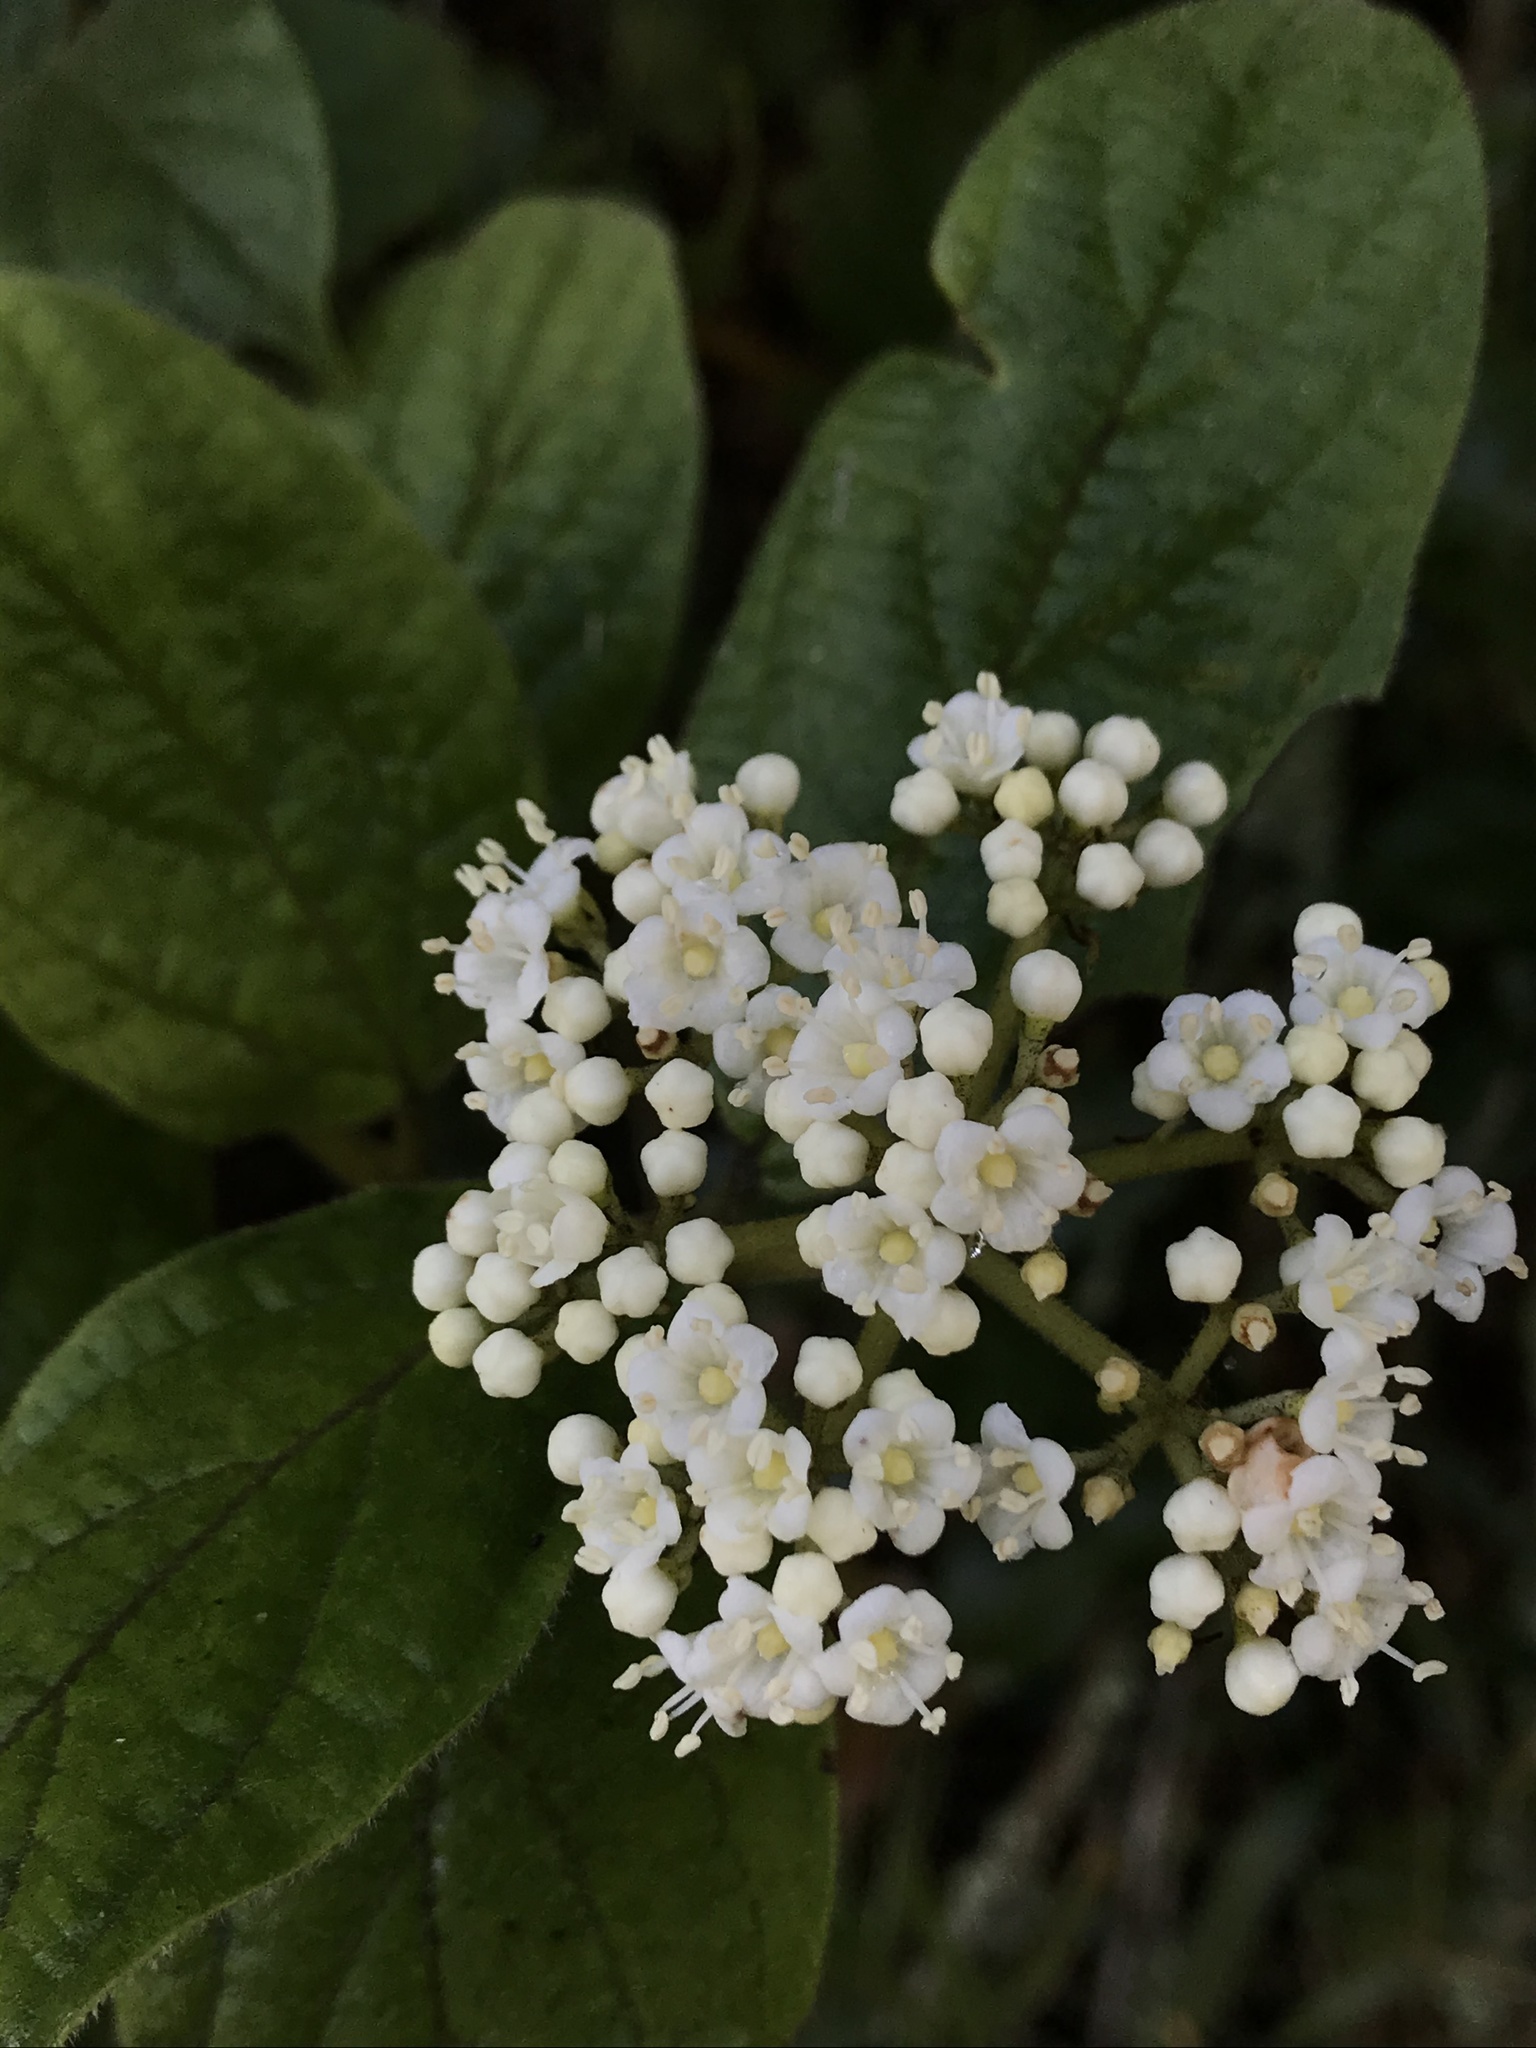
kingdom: Plantae
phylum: Tracheophyta
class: Magnoliopsida
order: Dipsacales
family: Viburnaceae
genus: Viburnum
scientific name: Viburnum tinoides
